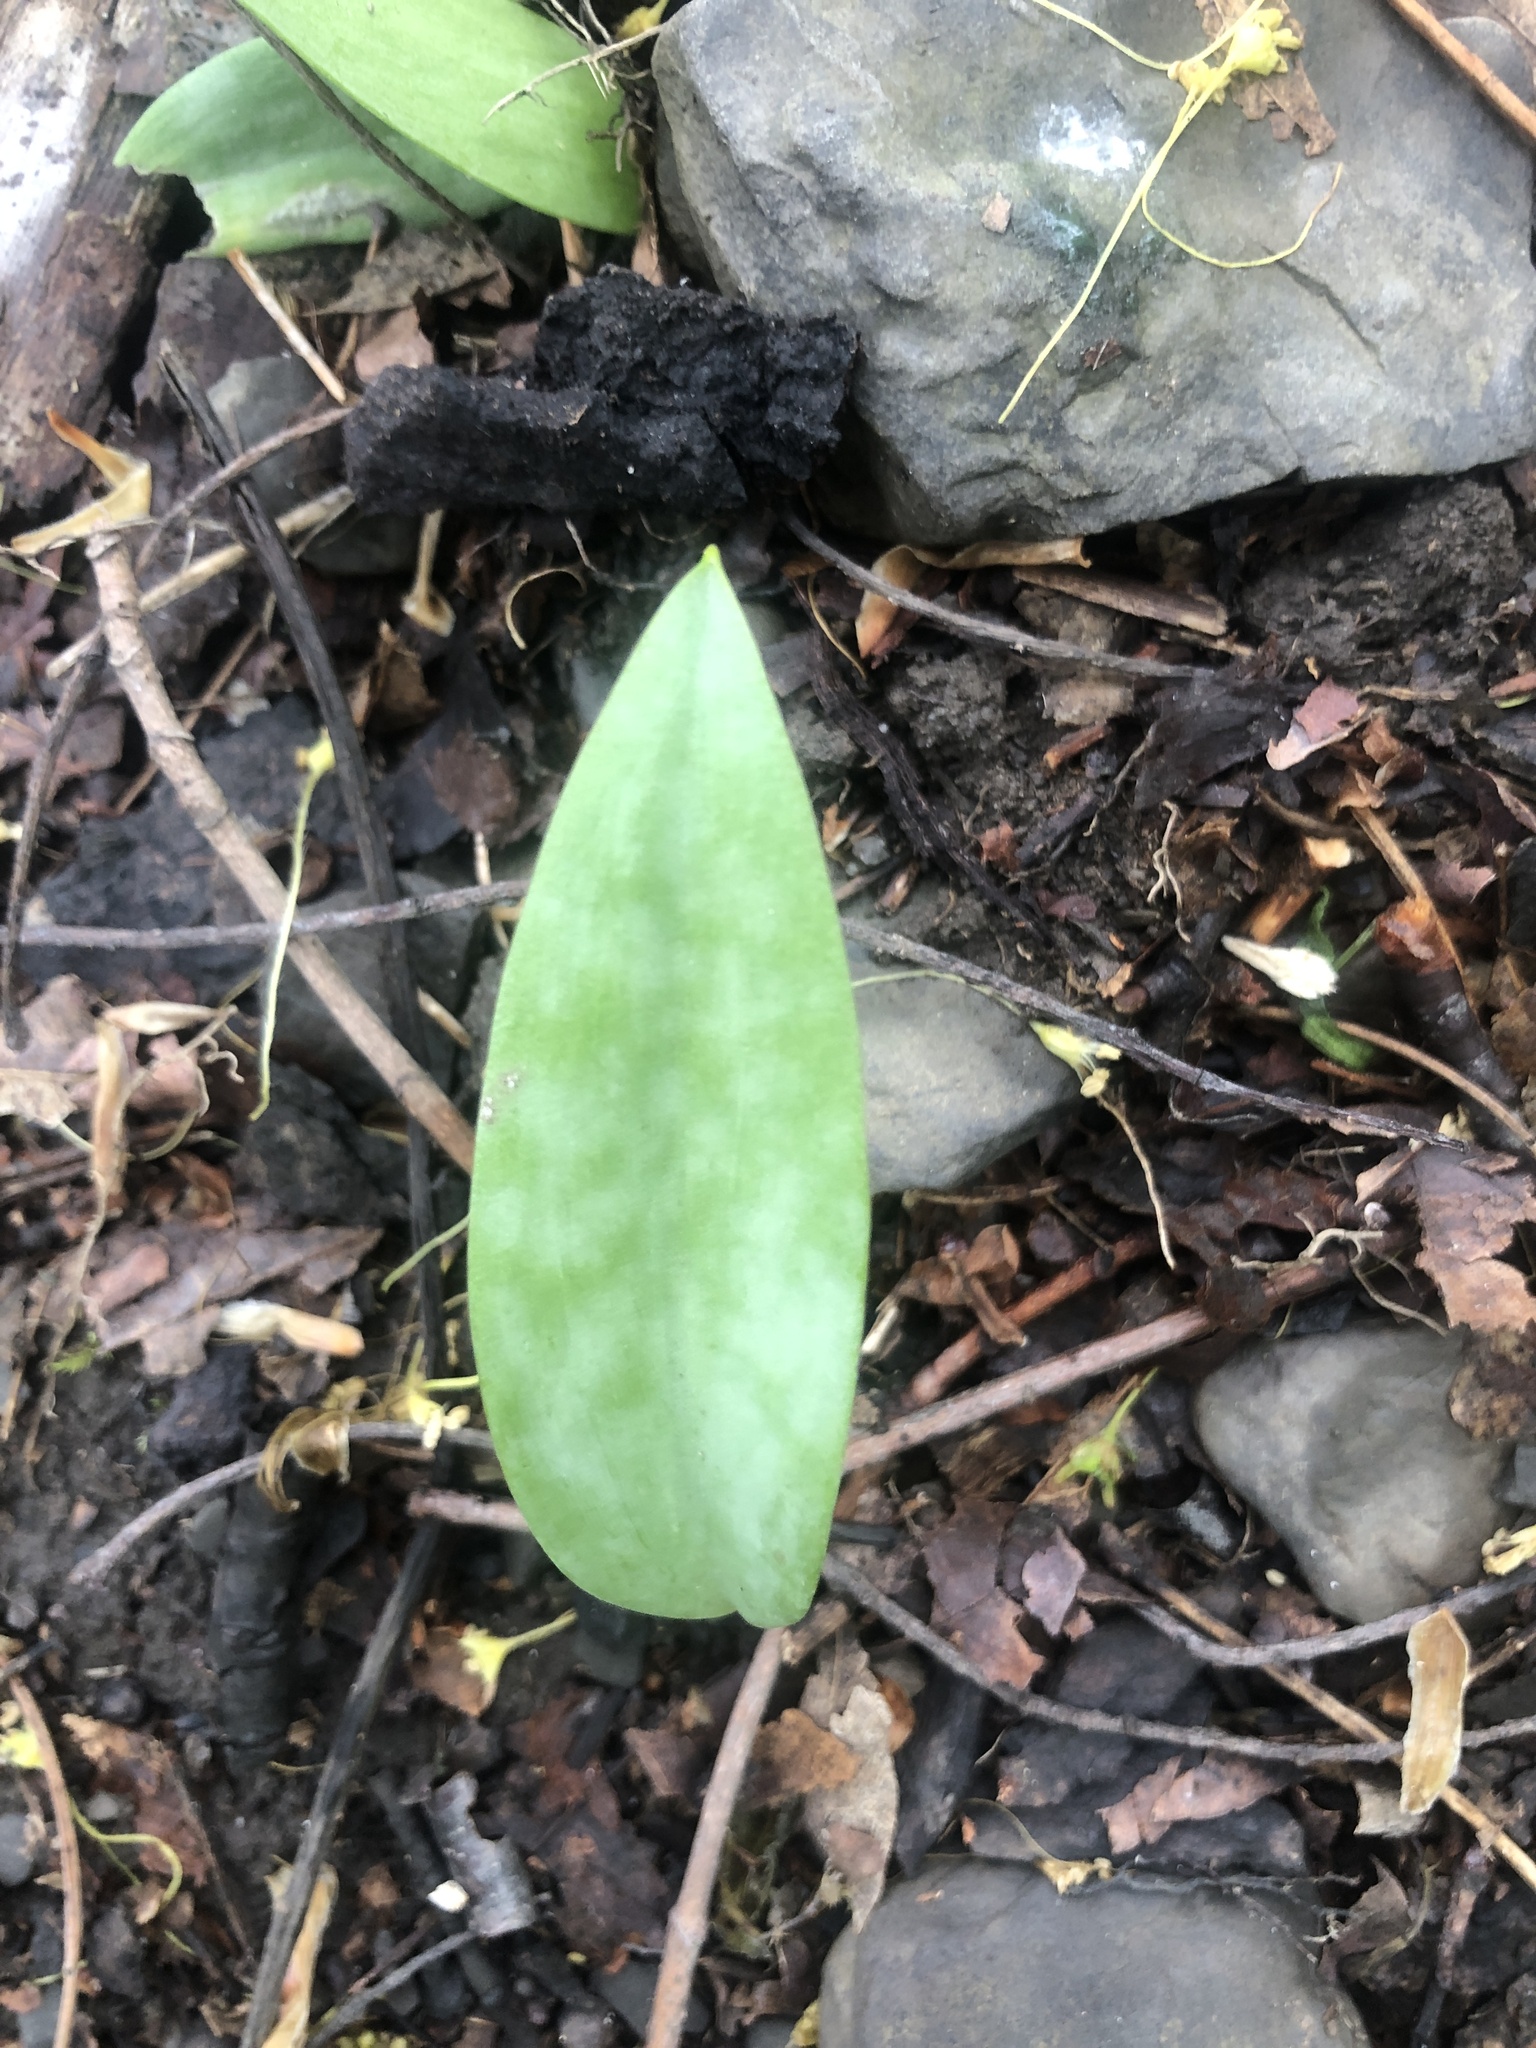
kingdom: Plantae
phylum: Tracheophyta
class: Liliopsida
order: Liliales
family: Liliaceae
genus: Erythronium
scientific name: Erythronium americanum
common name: Yellow adder's-tongue
